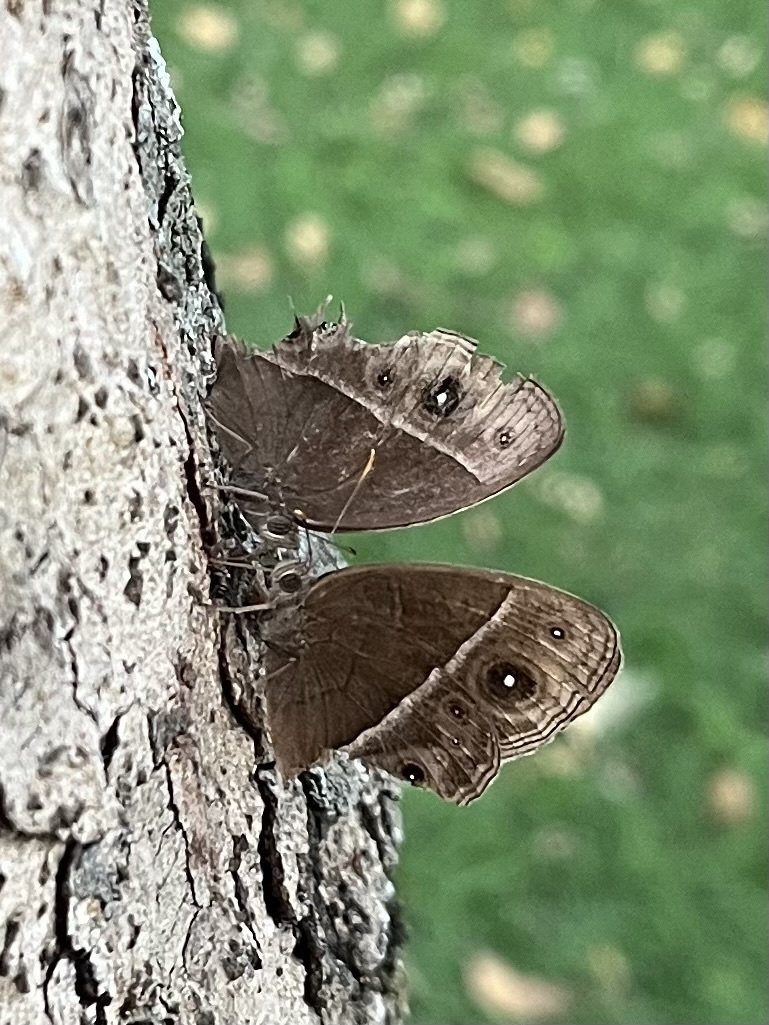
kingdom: Animalia
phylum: Arthropoda
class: Insecta
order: Lepidoptera
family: Nymphalidae
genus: Mycalesis
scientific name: Mycalesis rhacotis
